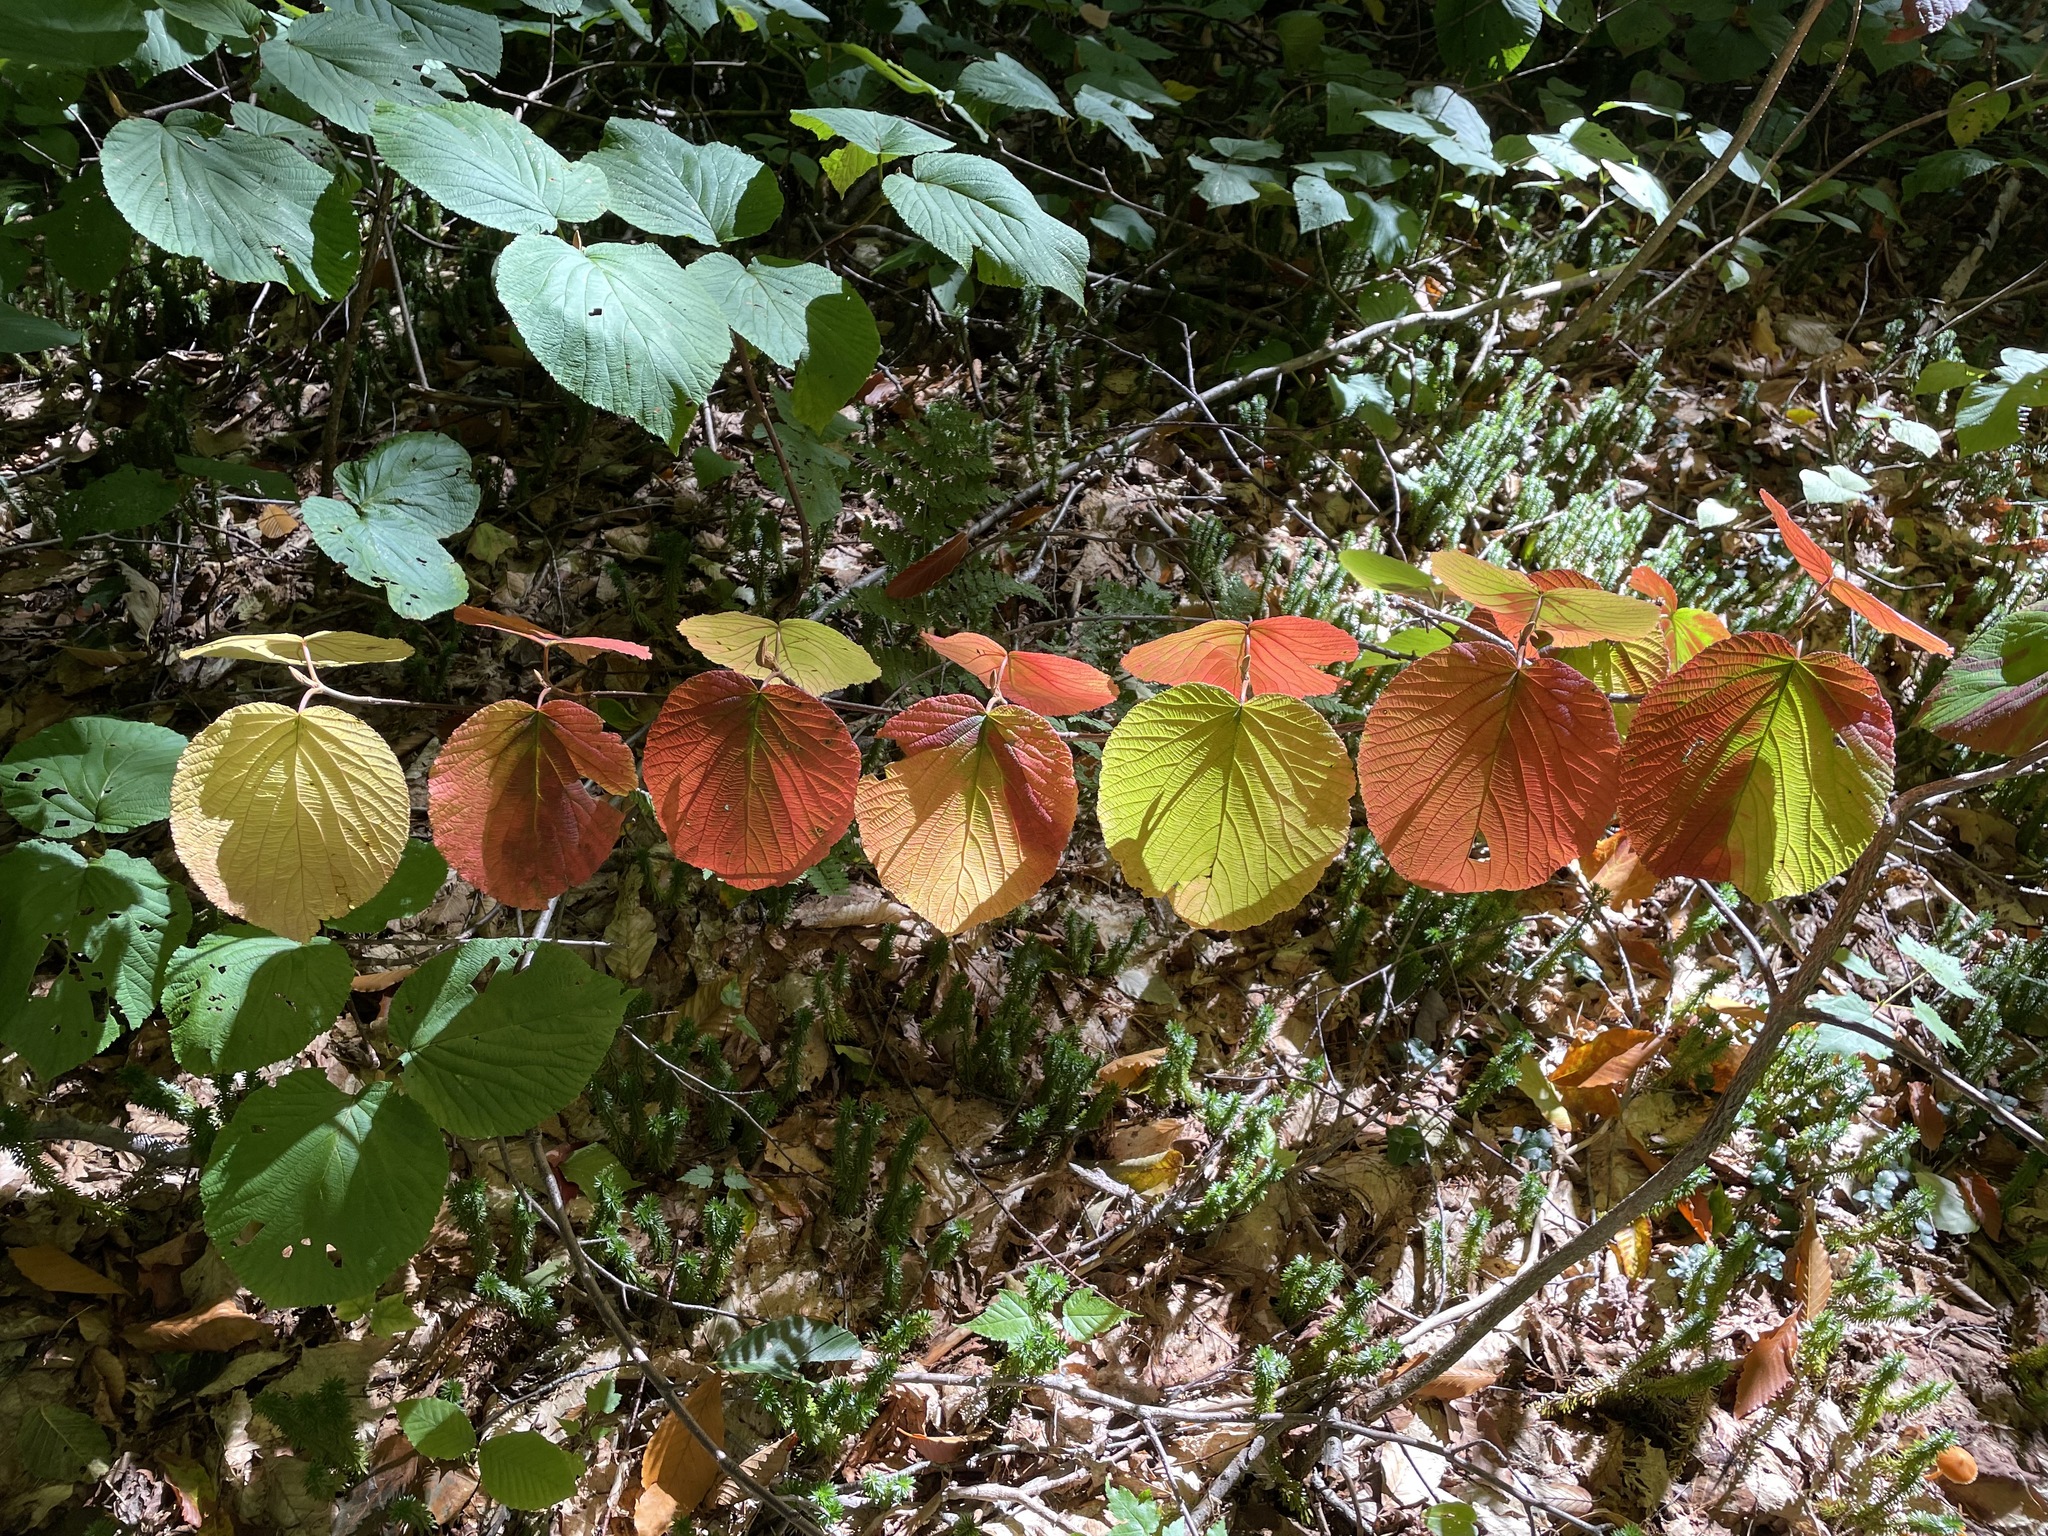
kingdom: Plantae
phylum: Tracheophyta
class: Magnoliopsida
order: Dipsacales
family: Viburnaceae
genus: Viburnum
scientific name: Viburnum lantanoides
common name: Hobblebush
